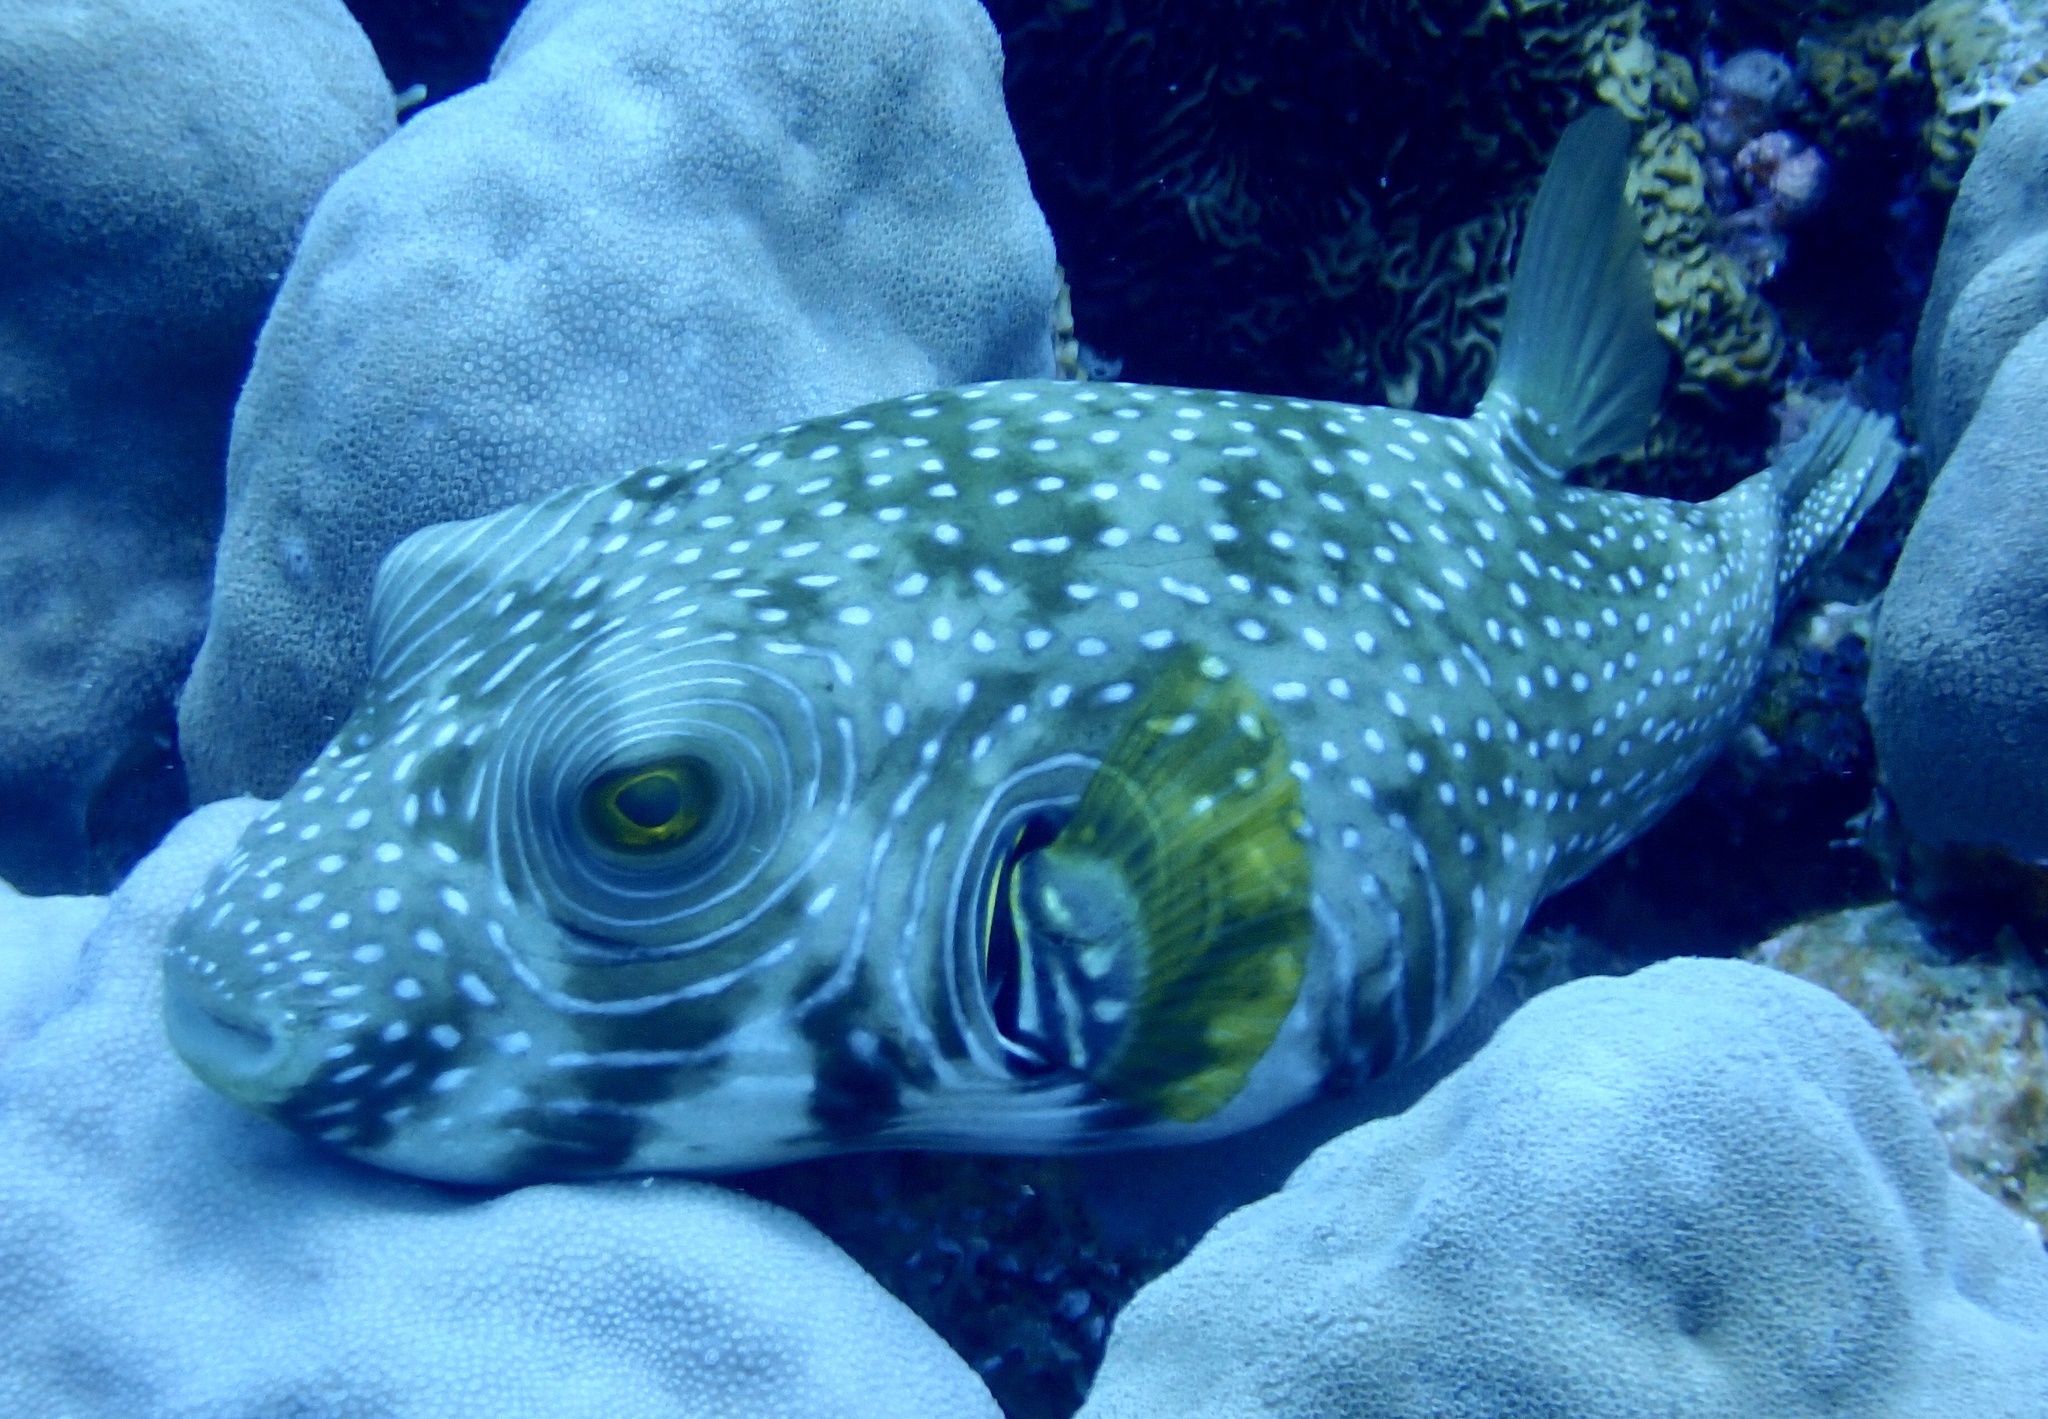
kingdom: Animalia
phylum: Chordata
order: Tetraodontiformes
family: Tetraodontidae
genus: Arothron
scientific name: Arothron hispidus
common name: Stripebelly puffer
